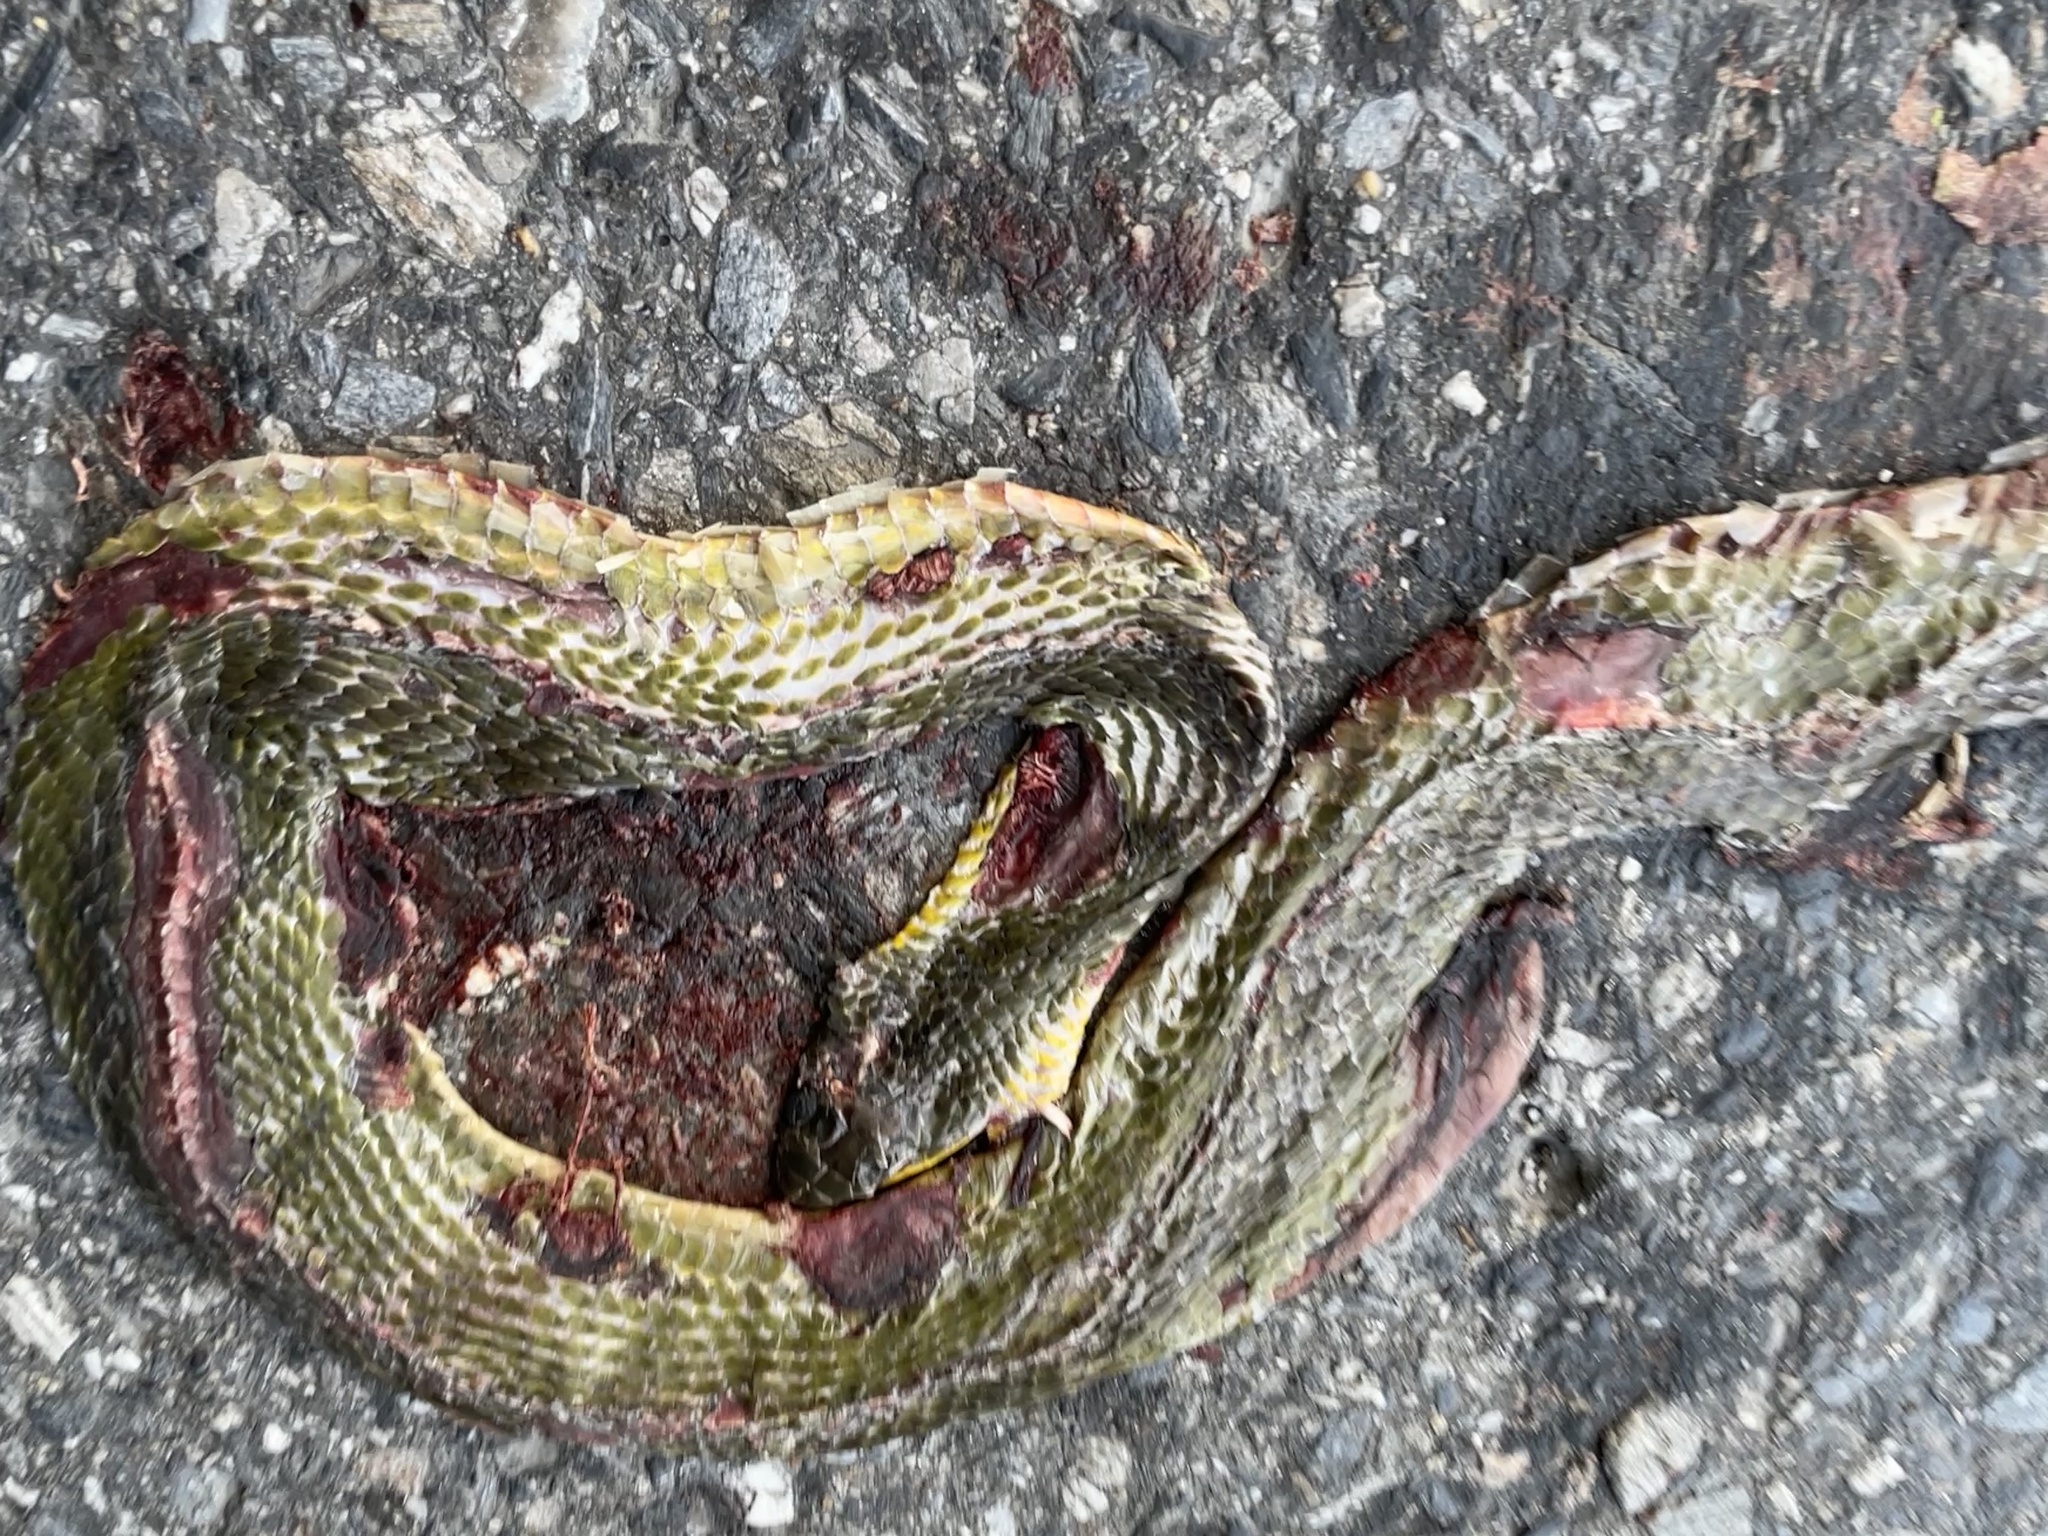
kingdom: Animalia
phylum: Chordata
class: Squamata
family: Colubridae
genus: Chironius
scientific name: Chironius quadricarinatus
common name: Central sipo
